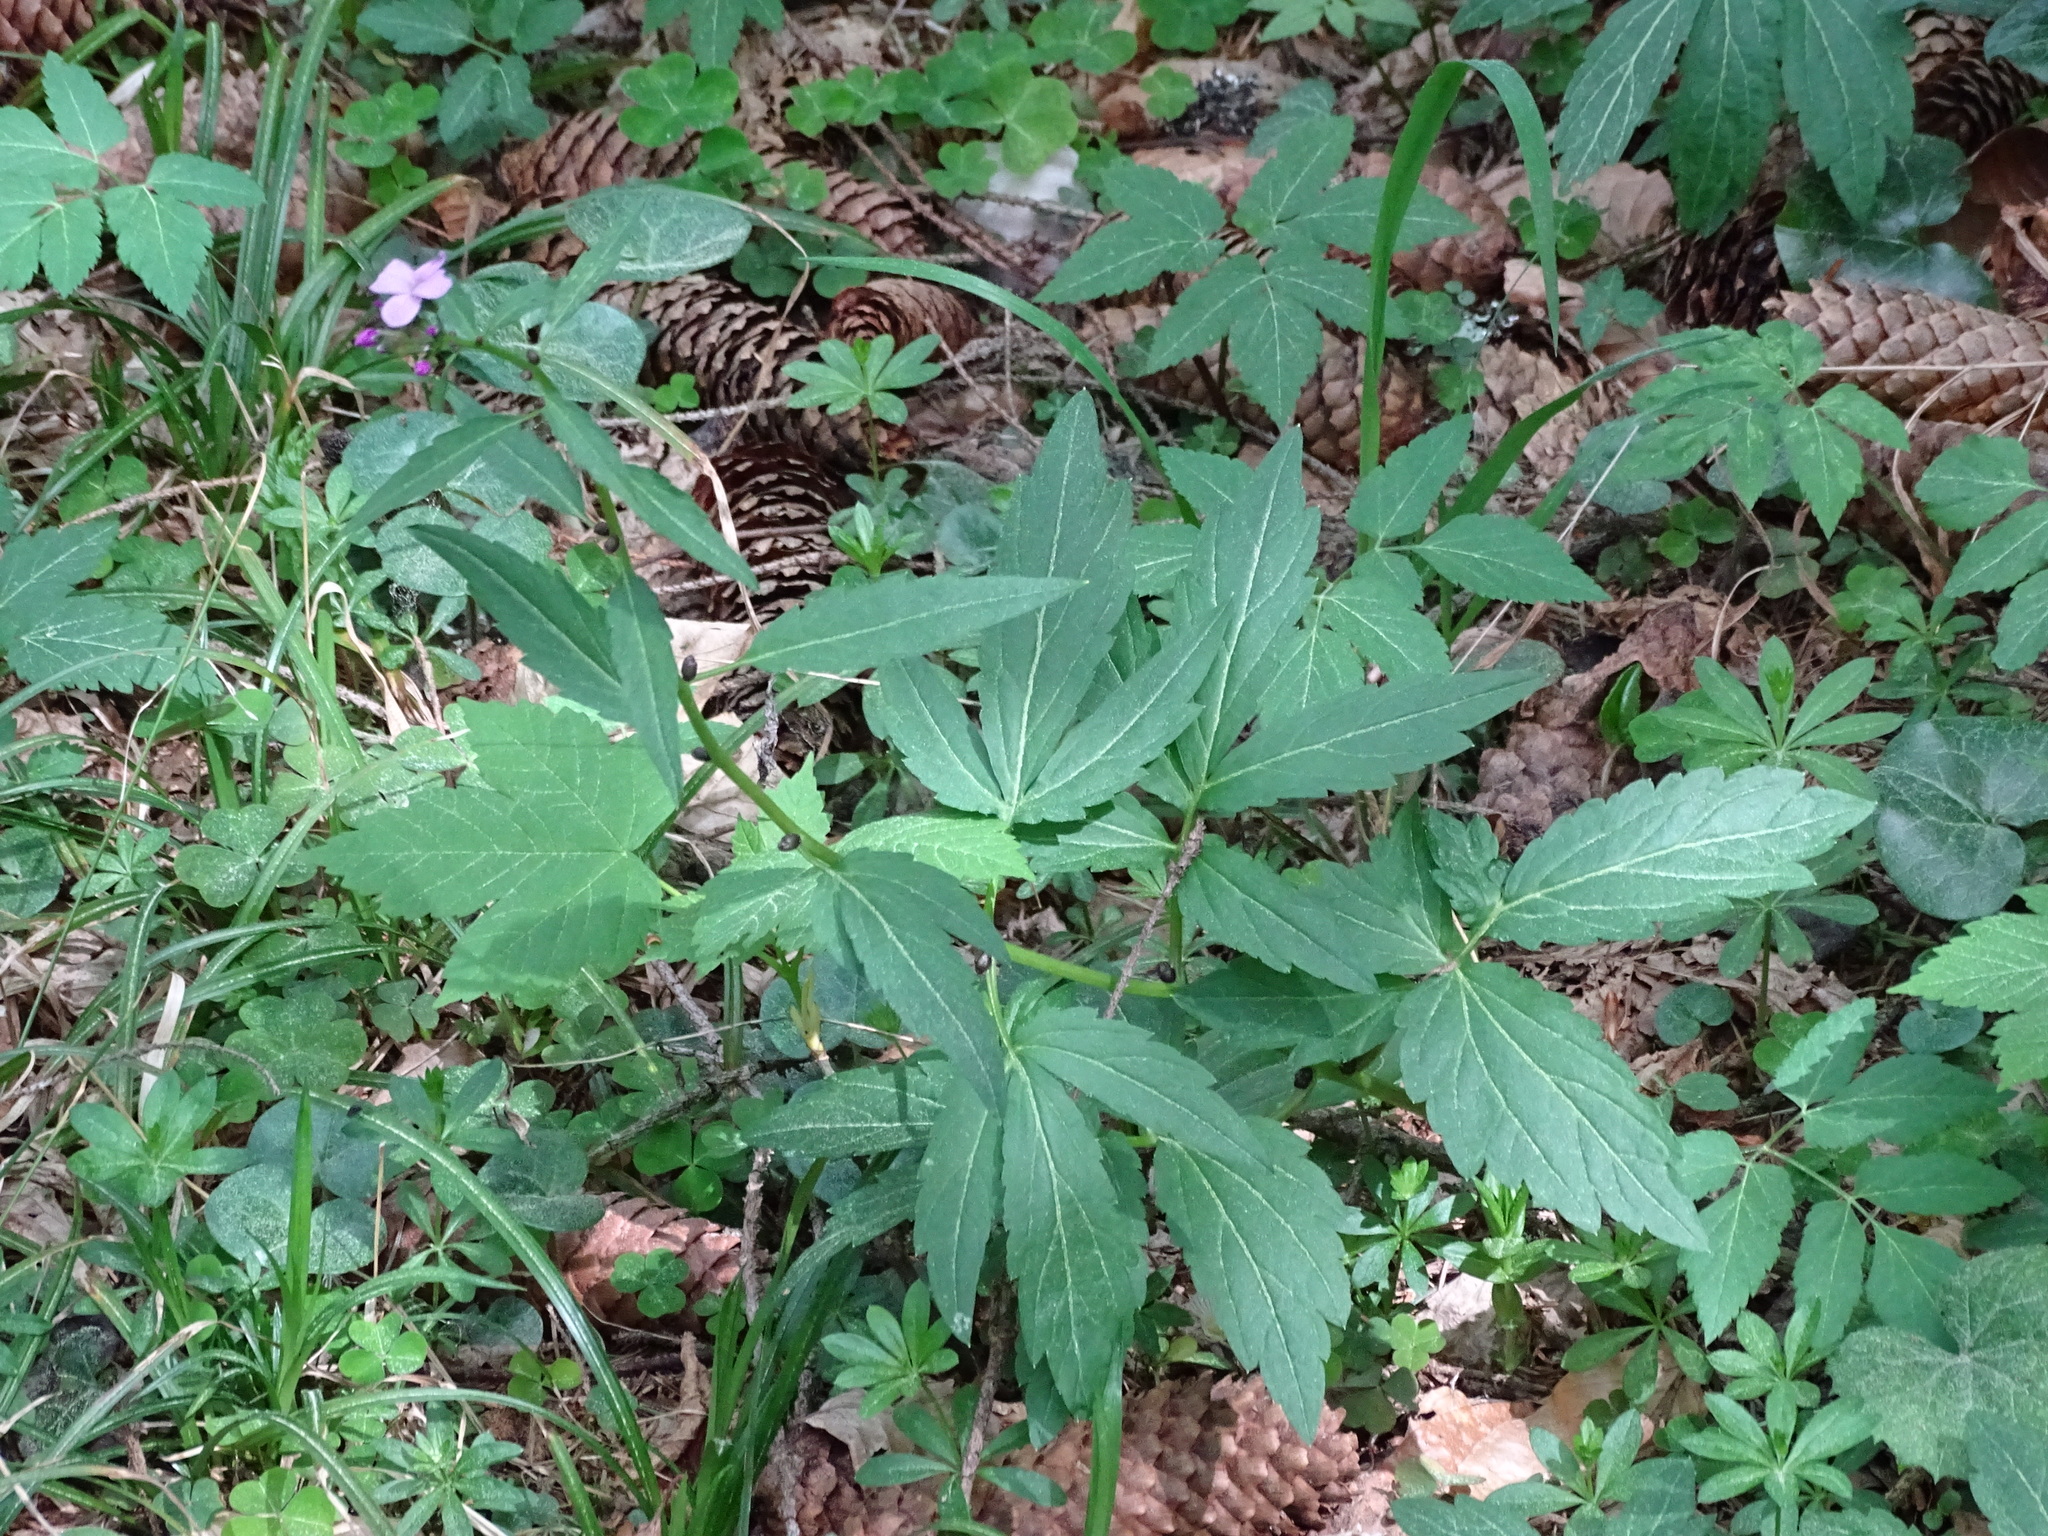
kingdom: Plantae
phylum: Tracheophyta
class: Magnoliopsida
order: Brassicales
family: Brassicaceae
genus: Cardamine
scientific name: Cardamine bulbifera
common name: Coralroot bittercress
